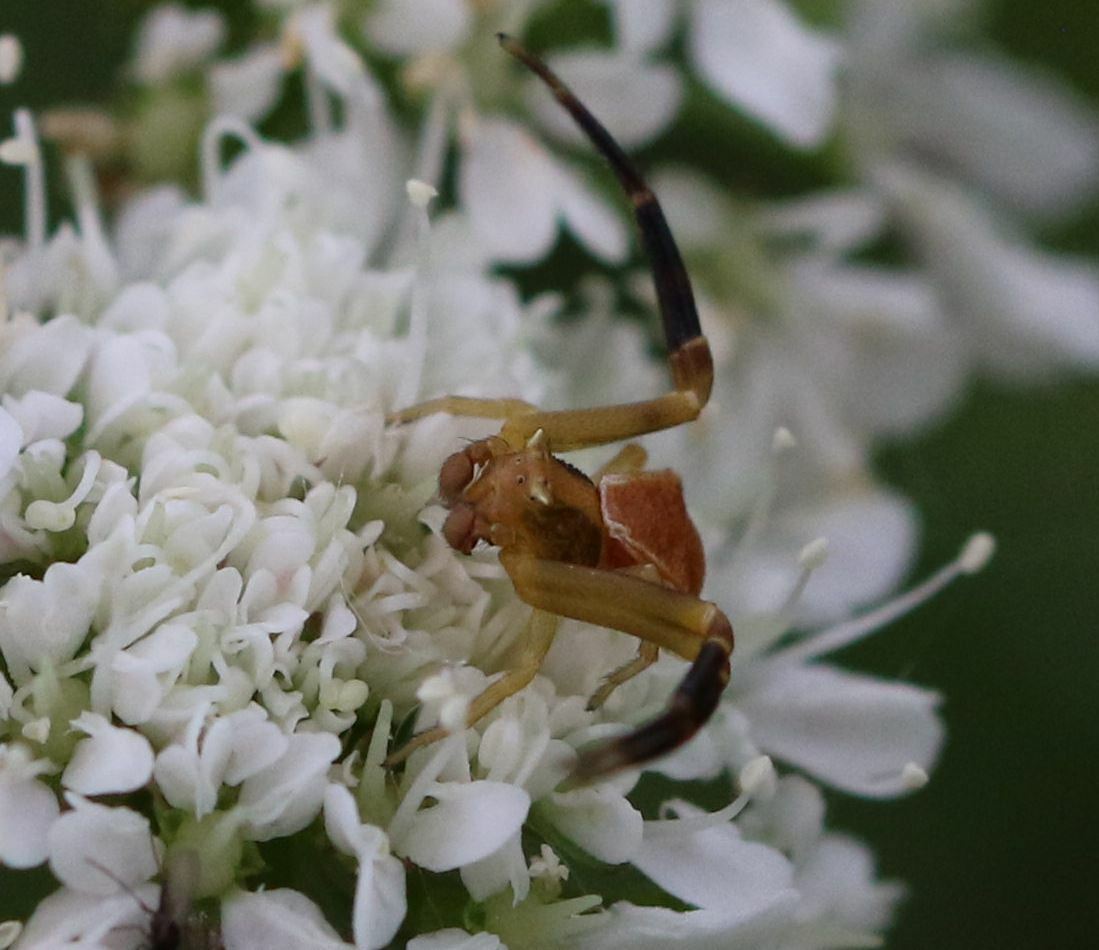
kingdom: Animalia
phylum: Arthropoda
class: Arachnida
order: Araneae
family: Thomisidae
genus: Thomisus
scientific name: Thomisus onustus
